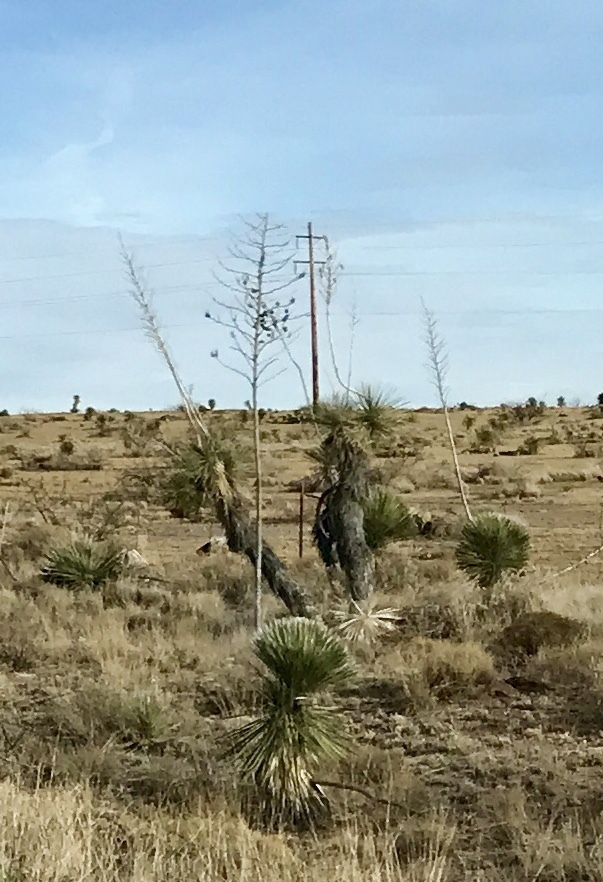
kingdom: Plantae
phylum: Tracheophyta
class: Liliopsida
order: Asparagales
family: Asparagaceae
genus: Yucca
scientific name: Yucca elata
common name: Palmella
